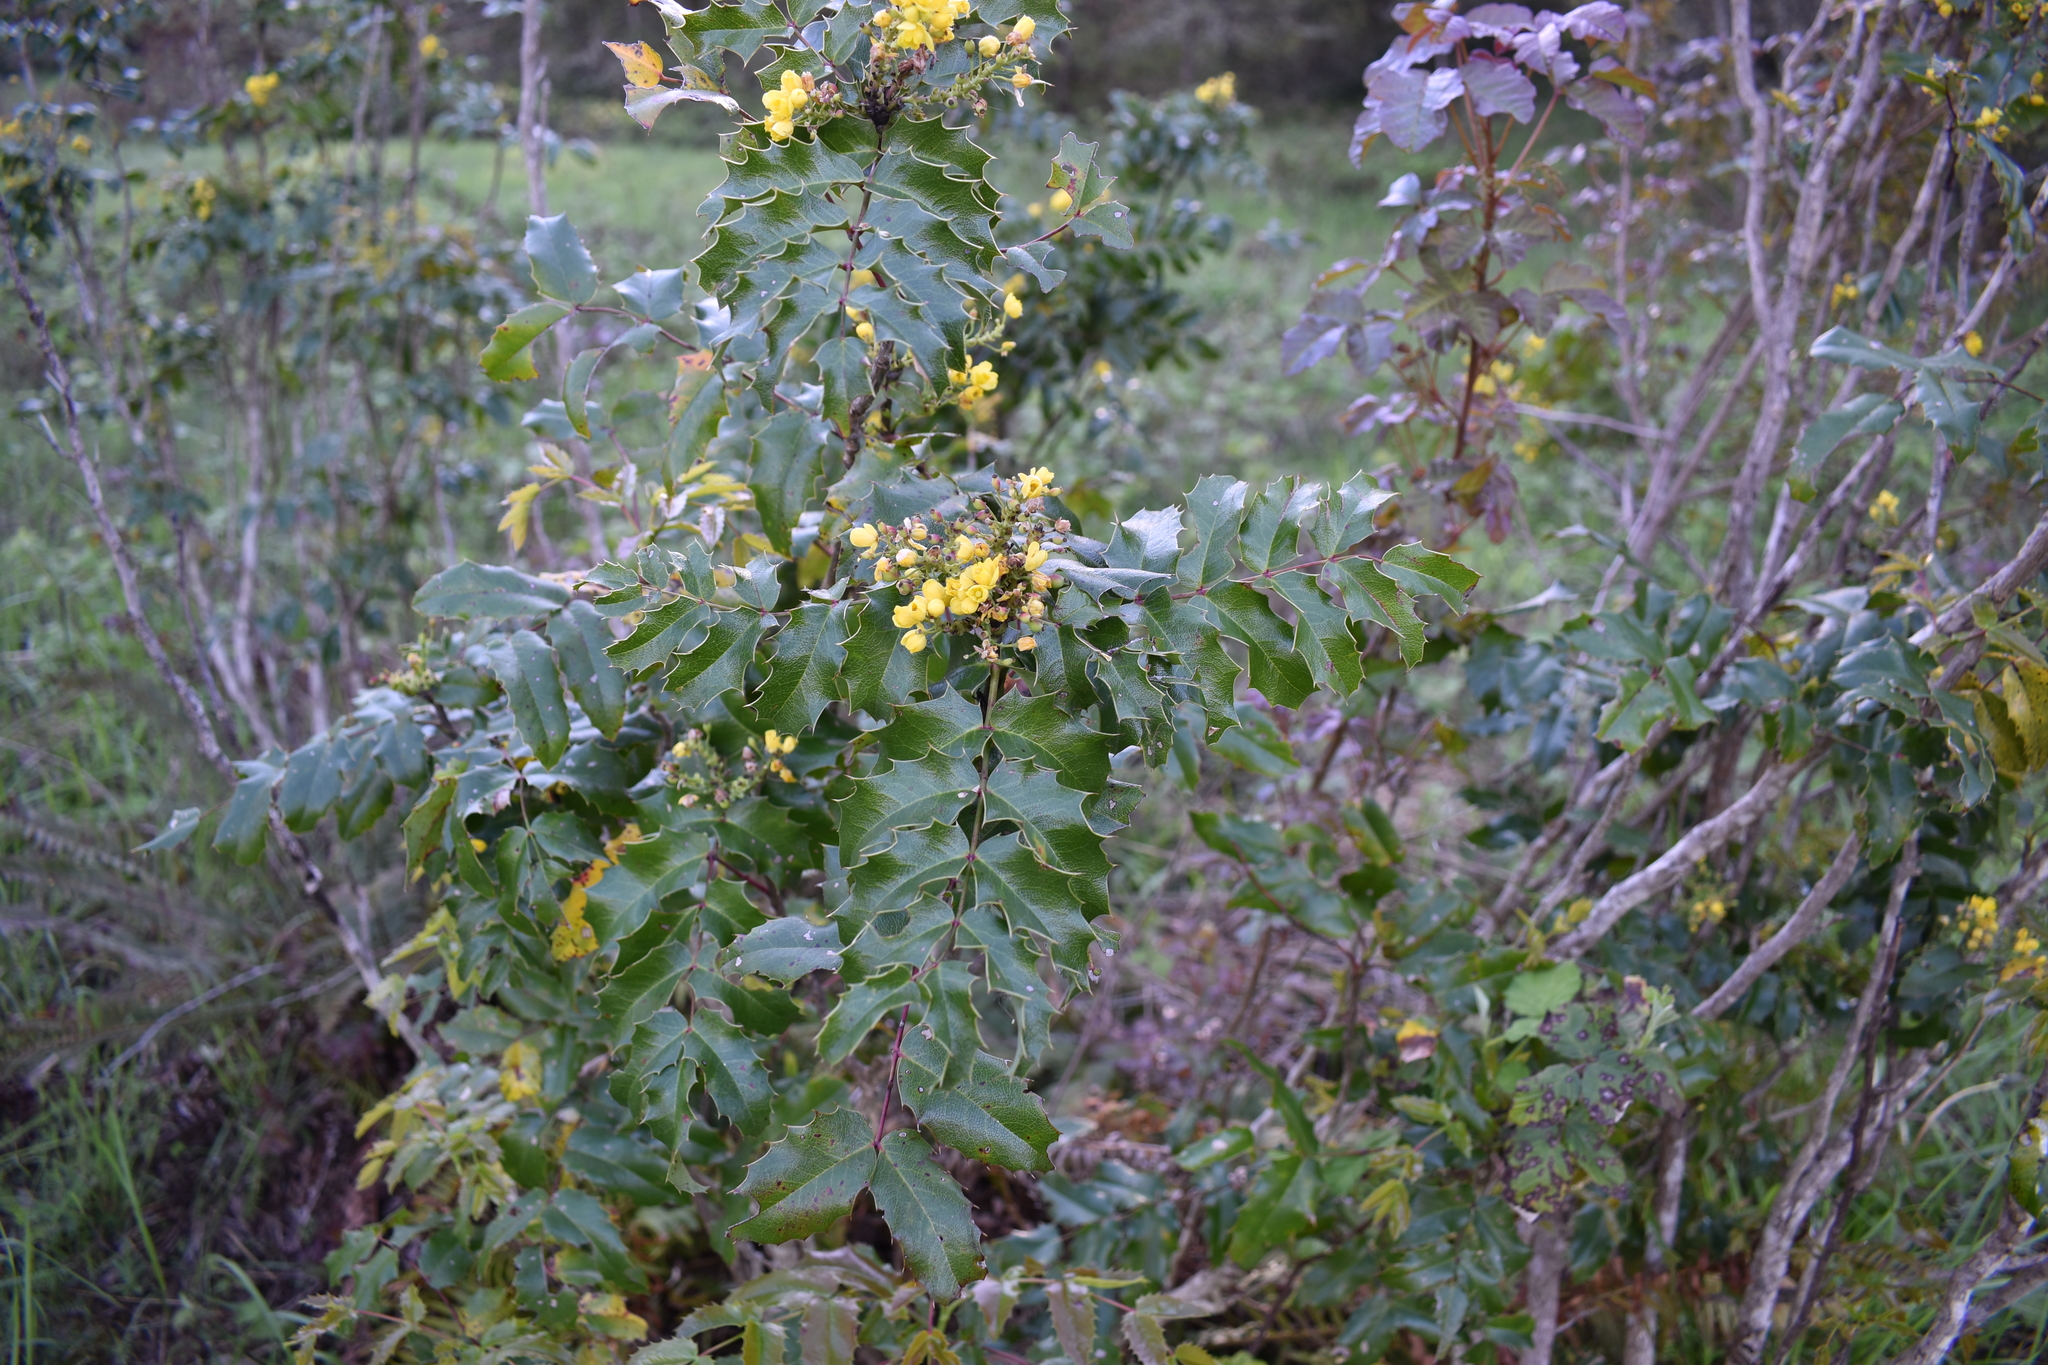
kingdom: Plantae
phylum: Tracheophyta
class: Magnoliopsida
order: Ranunculales
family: Berberidaceae
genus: Mahonia
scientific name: Mahonia aquifolium
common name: Oregon-grape
